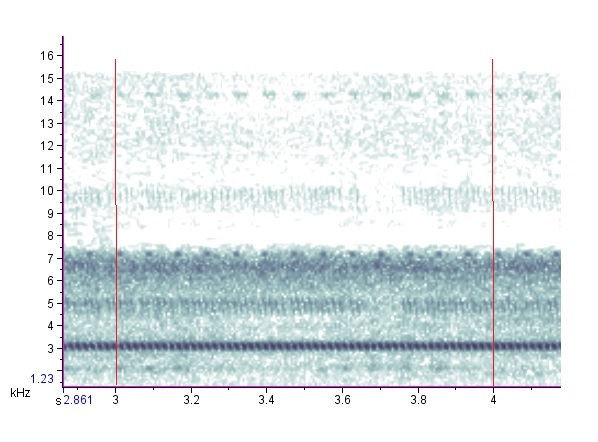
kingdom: Animalia
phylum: Arthropoda
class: Insecta
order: Orthoptera
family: Gryllidae
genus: Oecanthus
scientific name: Oecanthus latipennis
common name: Broad-winged tree cricket
